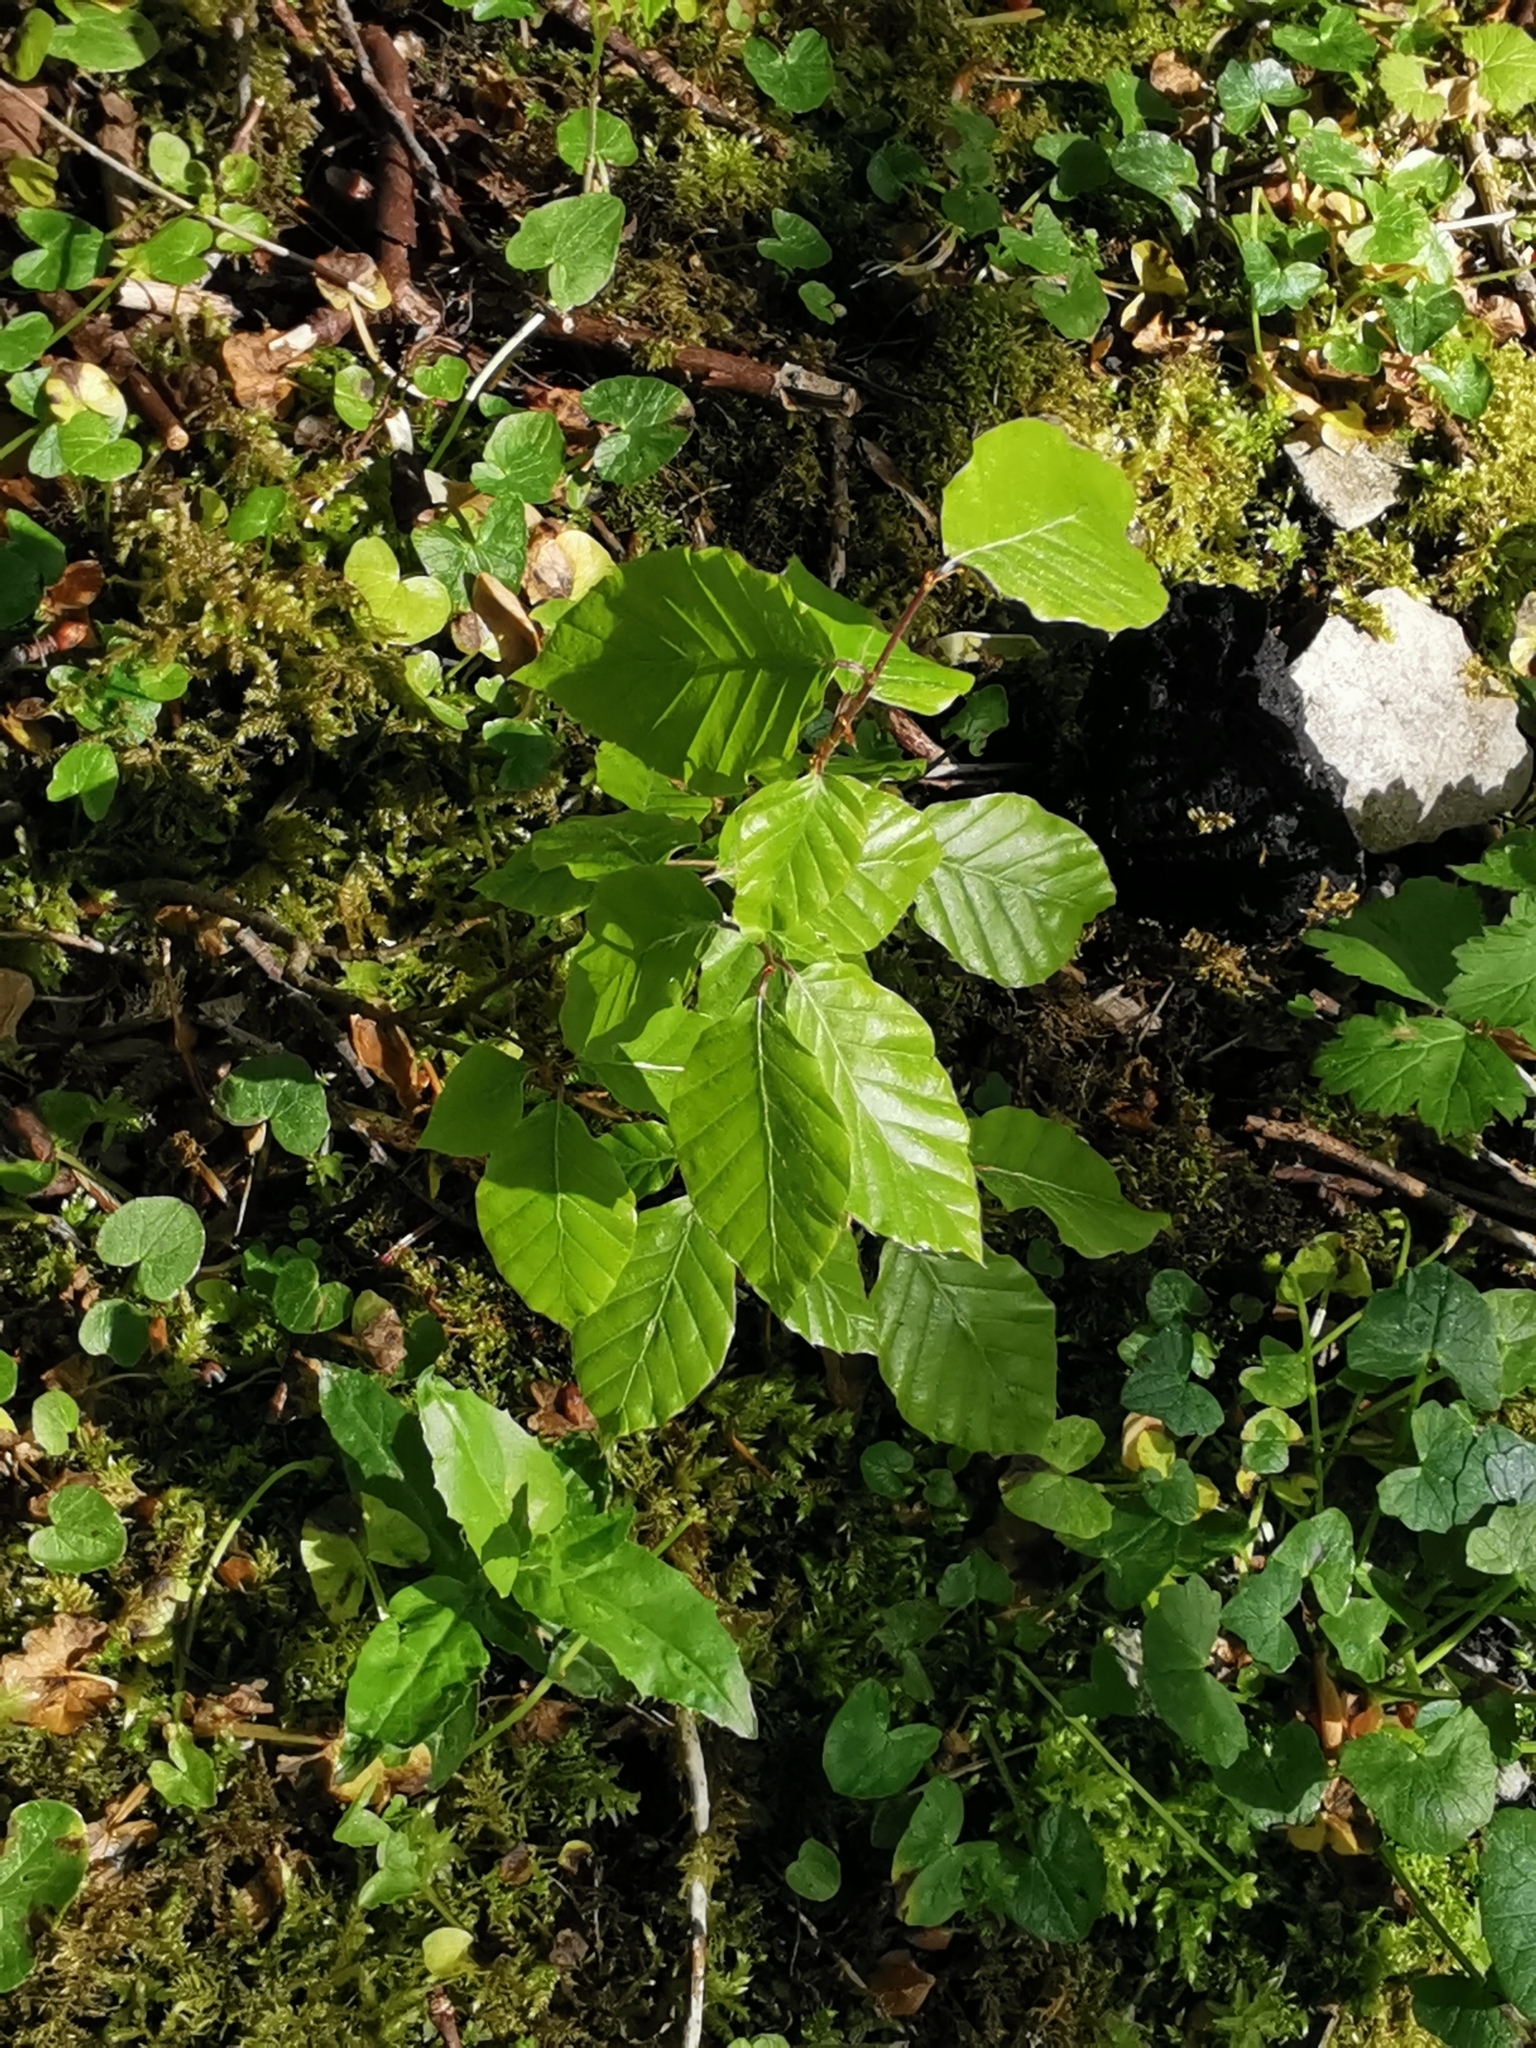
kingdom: Plantae
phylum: Tracheophyta
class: Magnoliopsida
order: Fagales
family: Fagaceae
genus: Fagus
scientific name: Fagus sylvatica
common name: Beech
